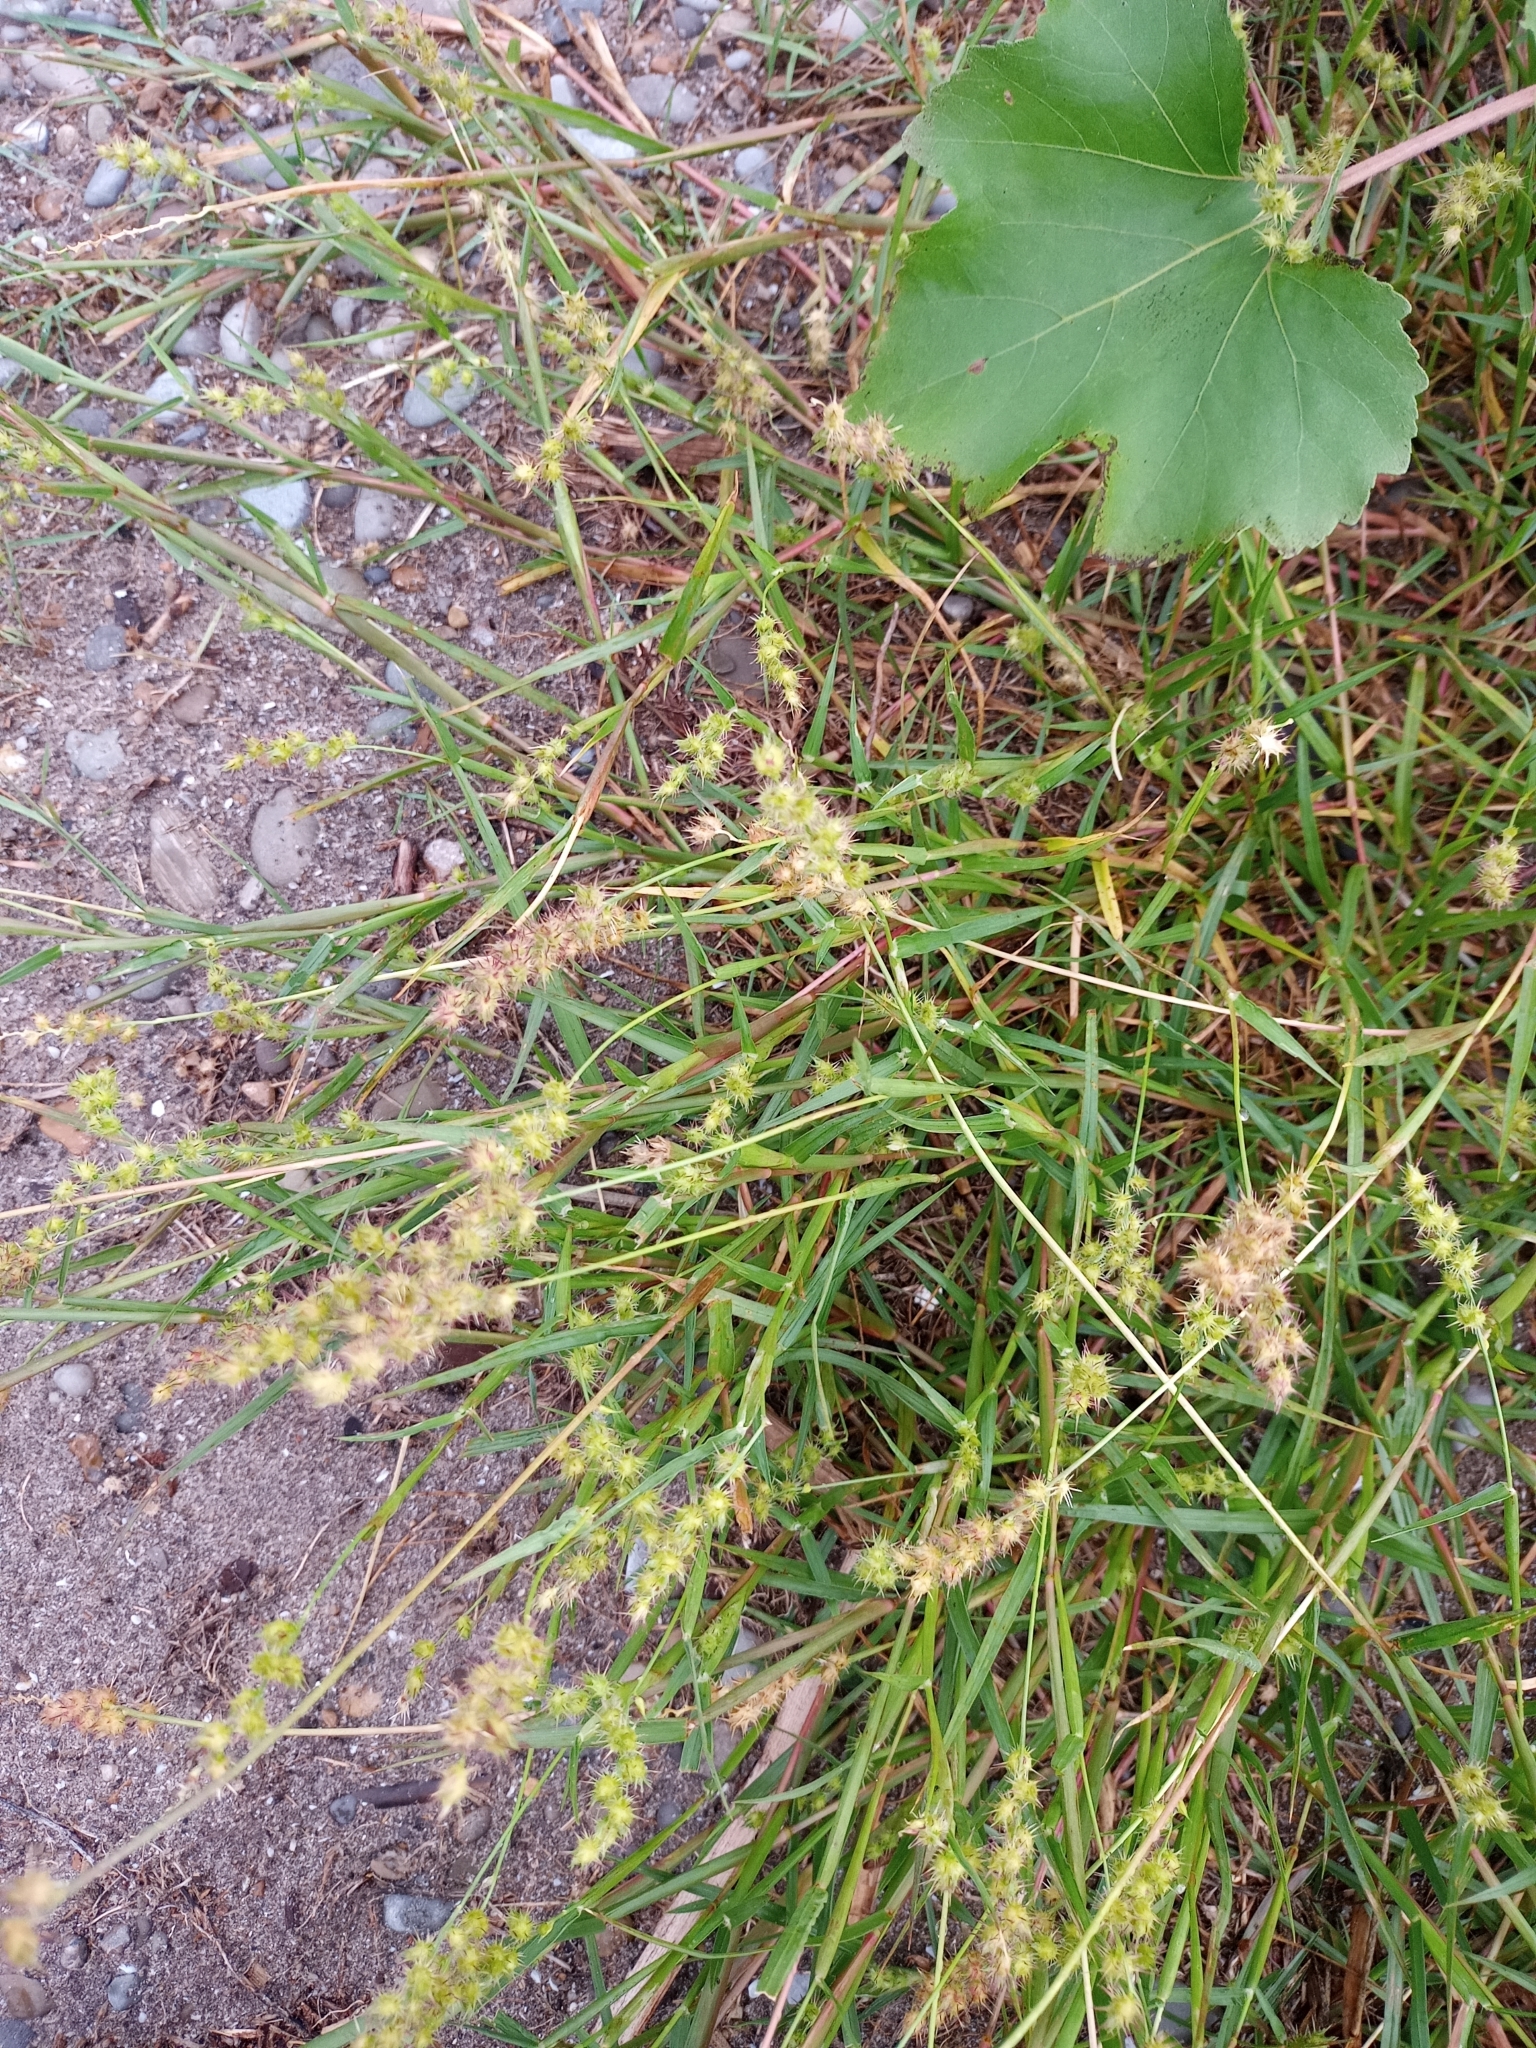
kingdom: Plantae
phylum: Tracheophyta
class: Liliopsida
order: Poales
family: Poaceae
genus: Cenchrus
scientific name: Cenchrus longispinus
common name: Mat sandbur
